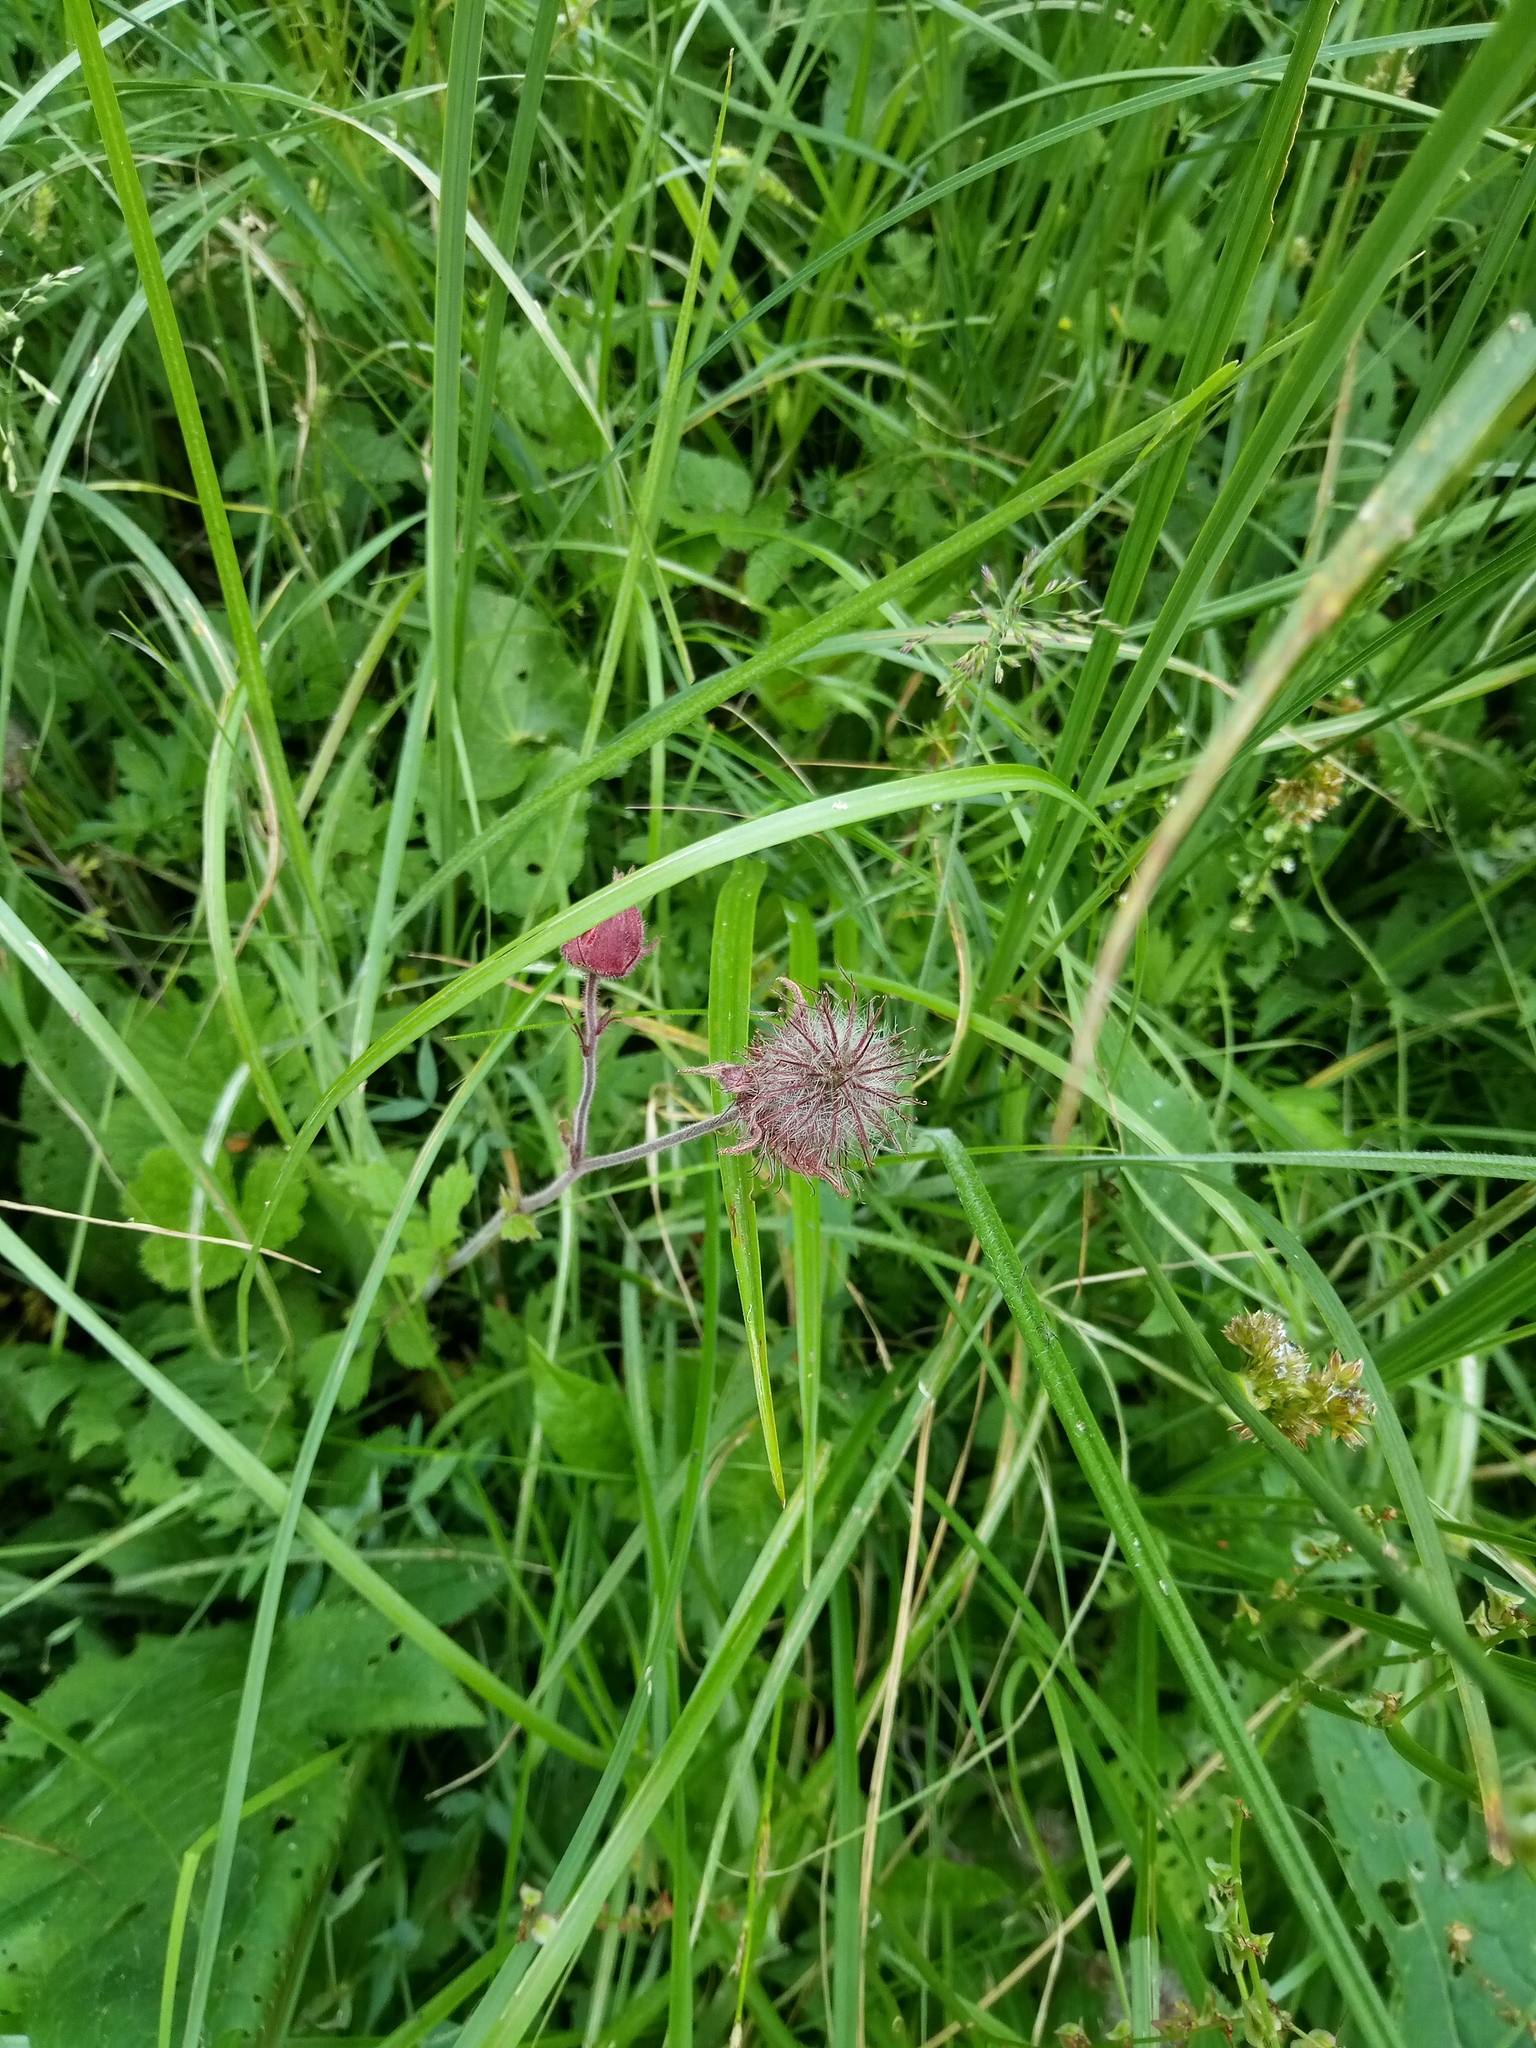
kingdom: Plantae
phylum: Tracheophyta
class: Magnoliopsida
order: Rosales
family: Rosaceae
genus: Geum
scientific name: Geum rivale
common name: Water avens
